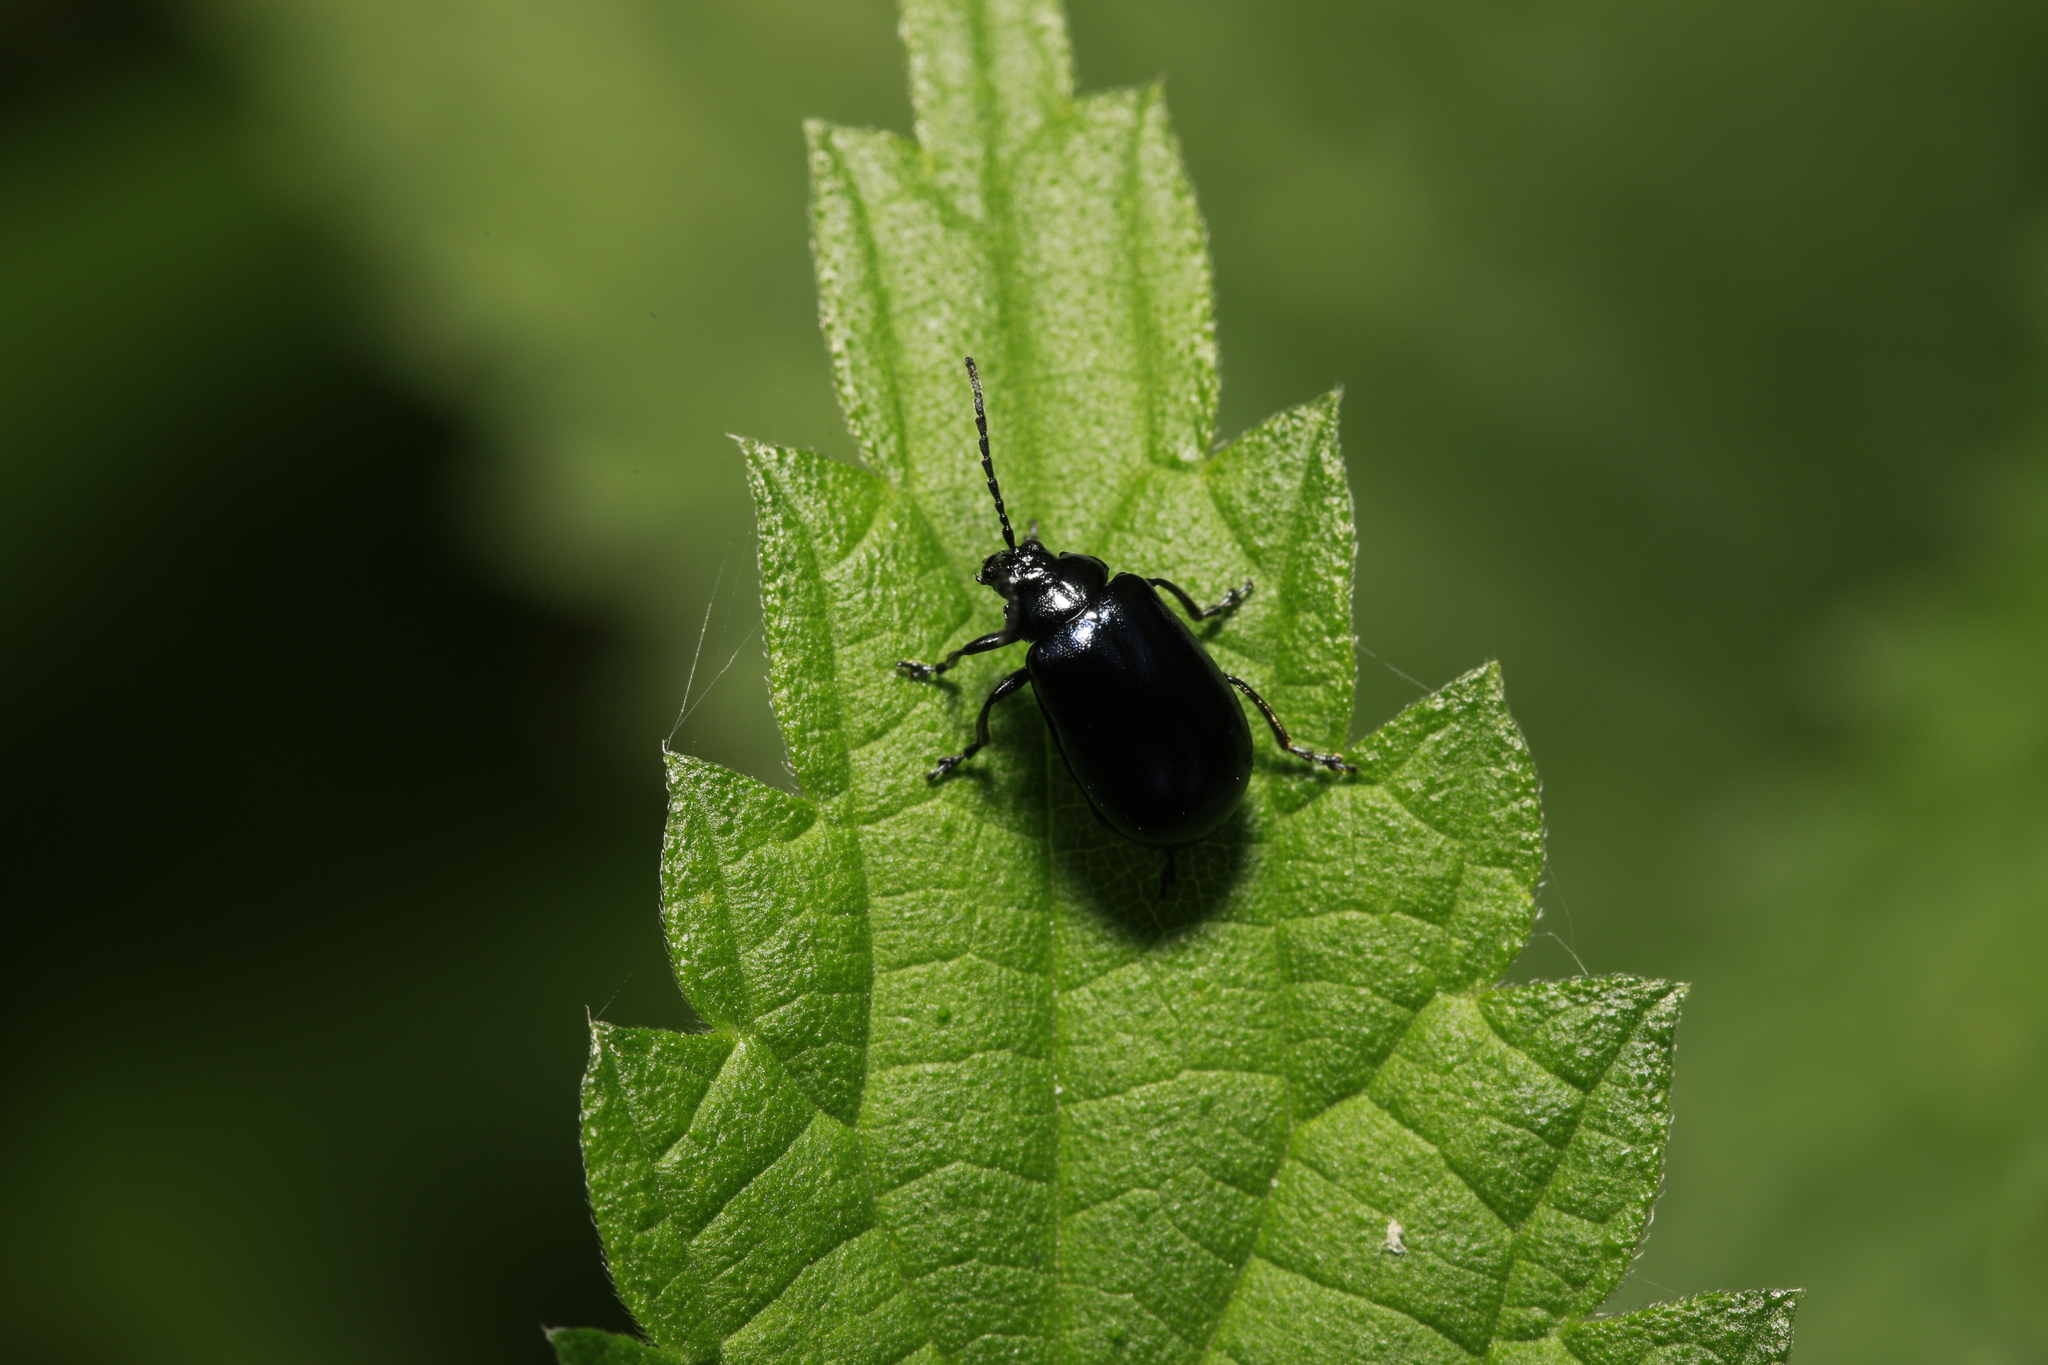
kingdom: Animalia
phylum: Arthropoda
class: Insecta
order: Coleoptera
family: Chrysomelidae
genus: Agelastica
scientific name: Agelastica alni
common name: Alder leaf beetle
